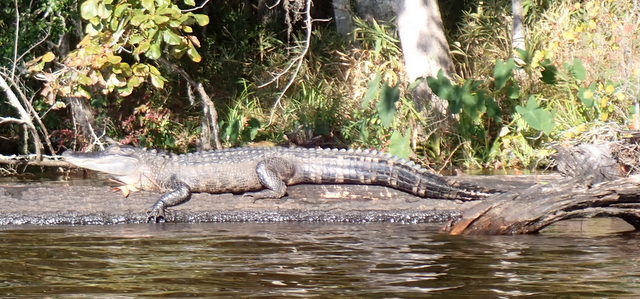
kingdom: Animalia
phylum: Chordata
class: Crocodylia
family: Alligatoridae
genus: Alligator
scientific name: Alligator mississippiensis
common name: American alligator
